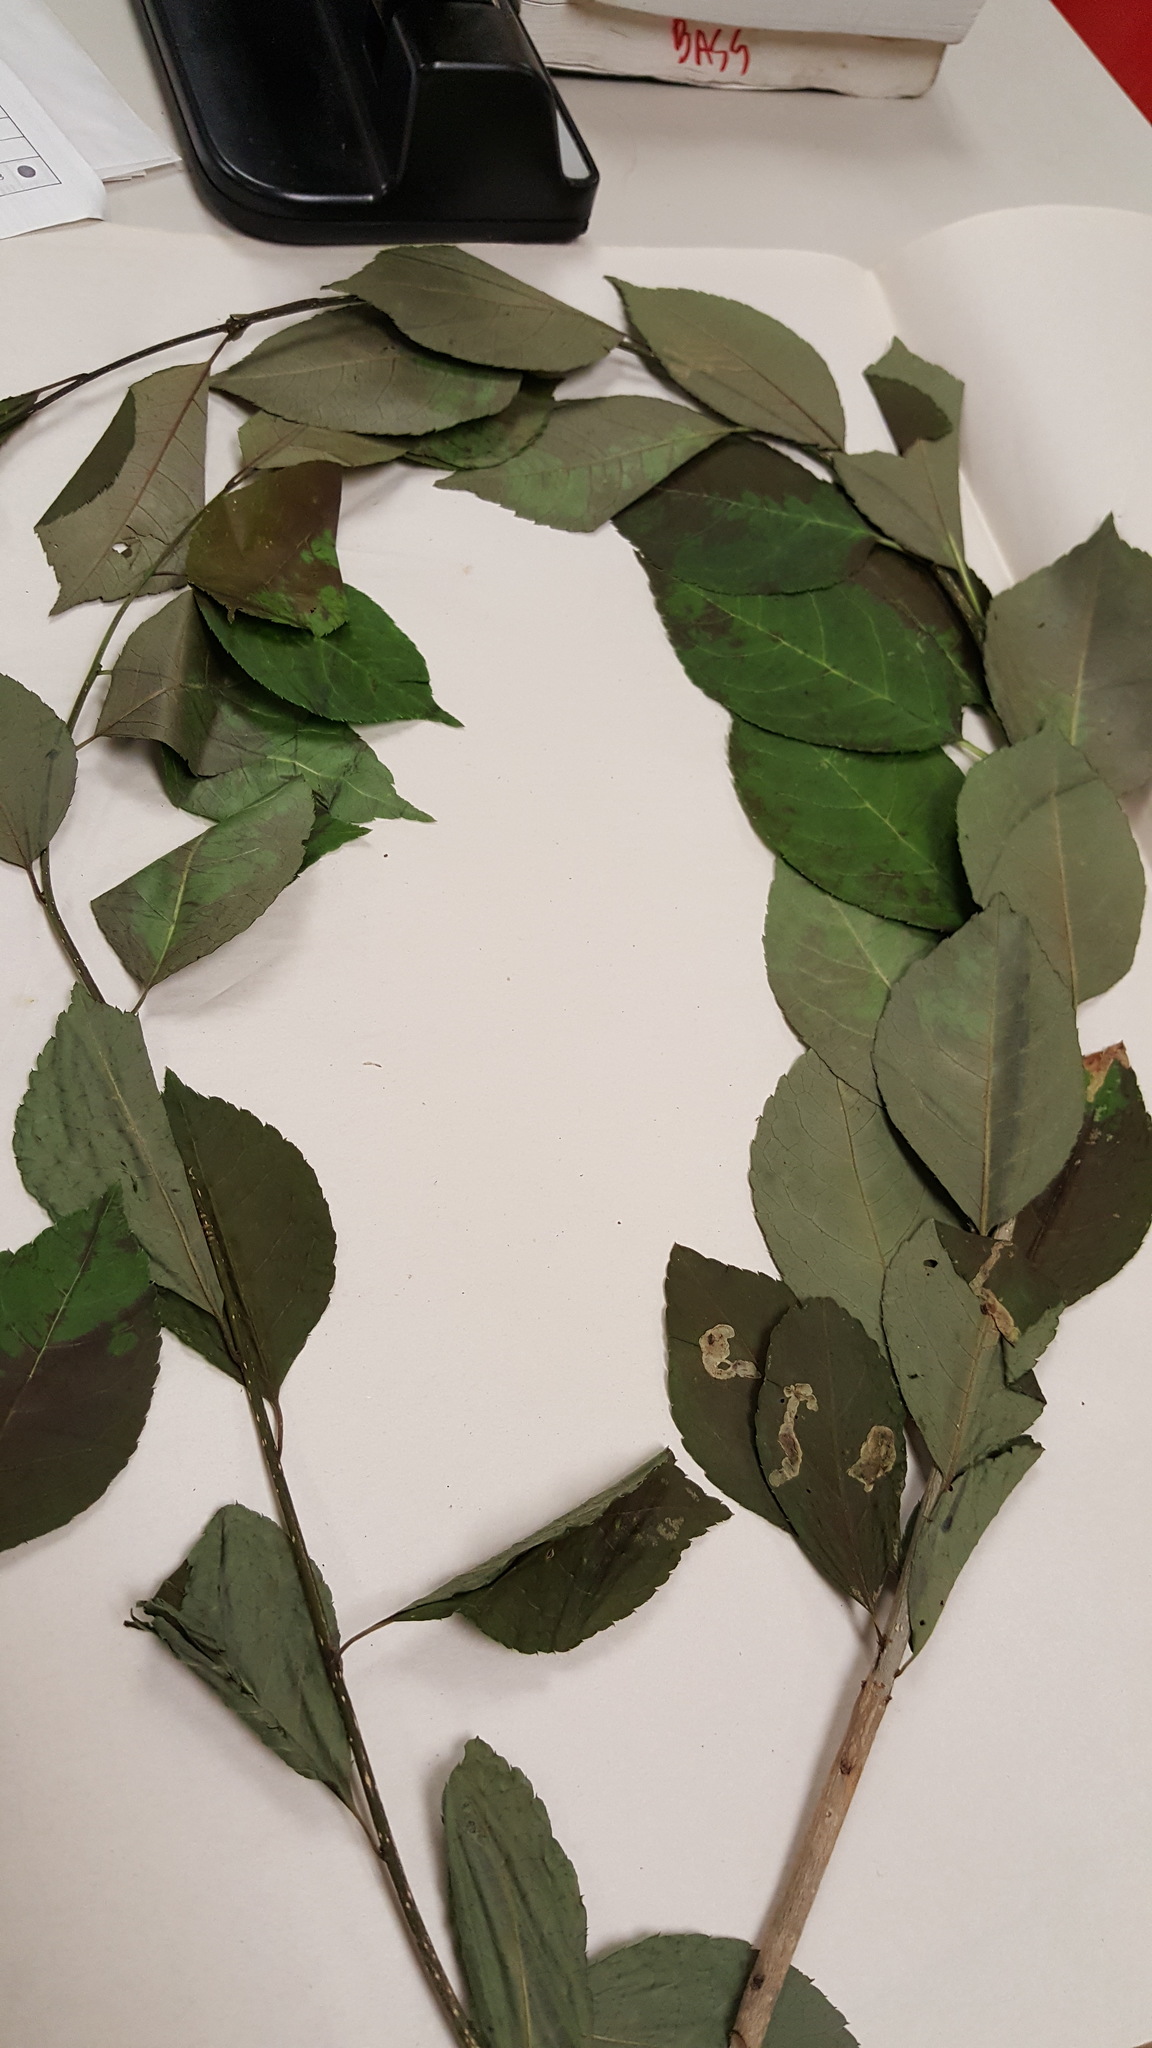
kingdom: Plantae
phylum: Tracheophyta
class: Magnoliopsida
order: Aquifoliales
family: Aquifoliaceae
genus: Ilex
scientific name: Ilex verticillata
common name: Virginia winterberry
